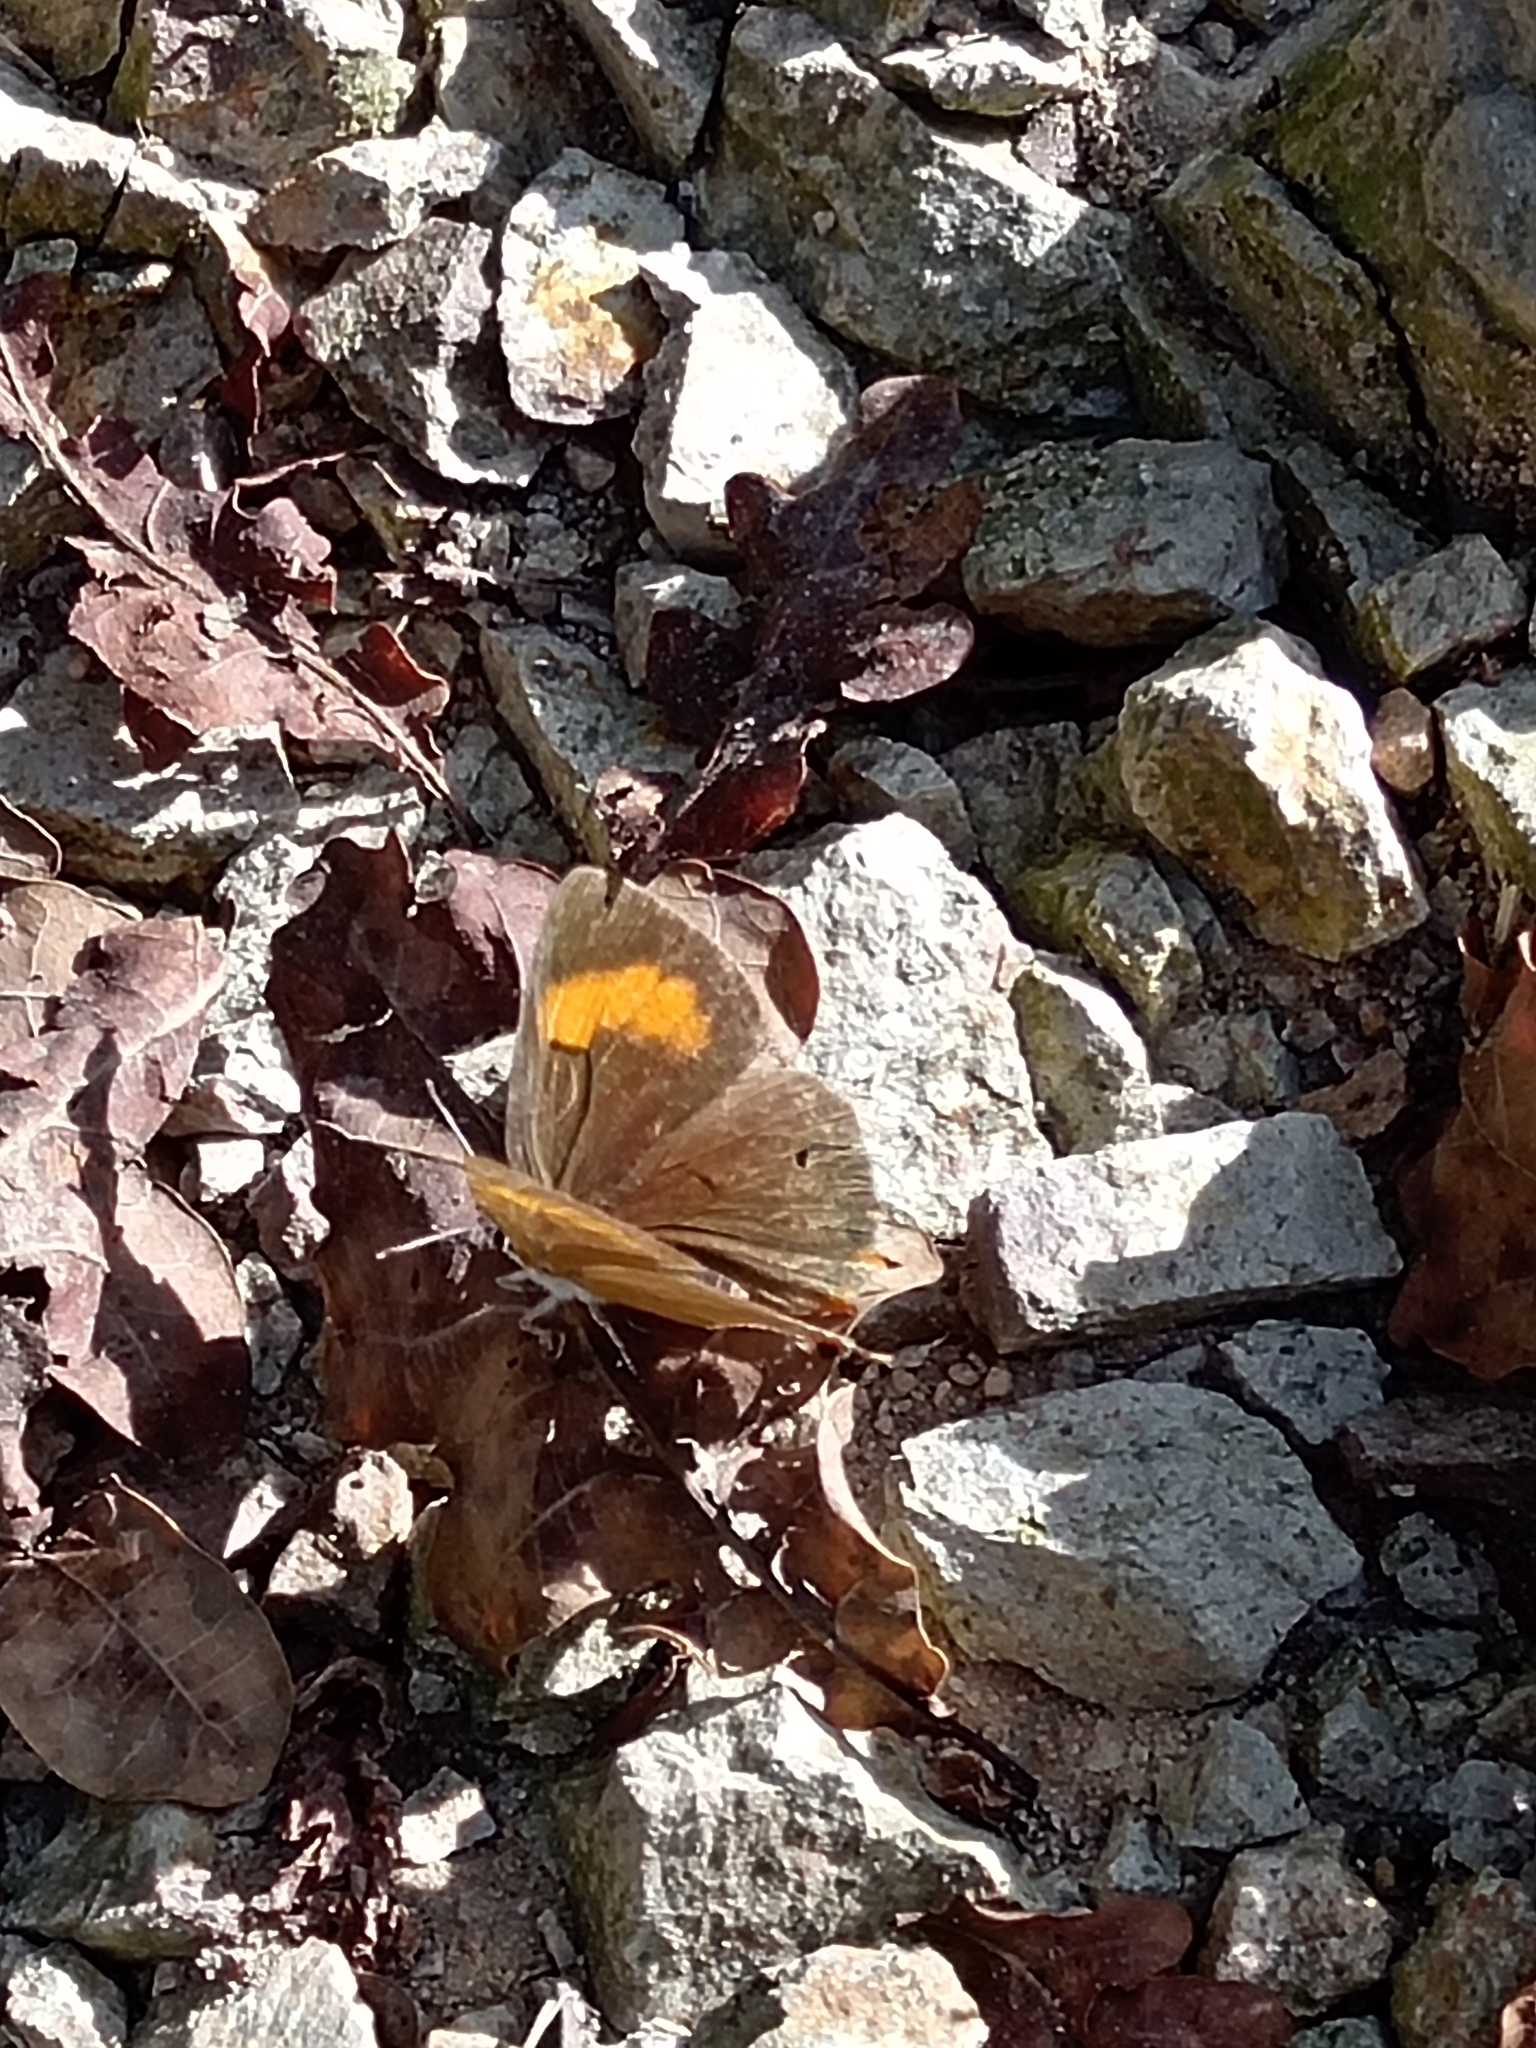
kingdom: Animalia
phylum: Arthropoda
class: Insecta
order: Lepidoptera
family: Lycaenidae
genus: Thecla
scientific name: Thecla betulae
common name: Brown hairstreak
